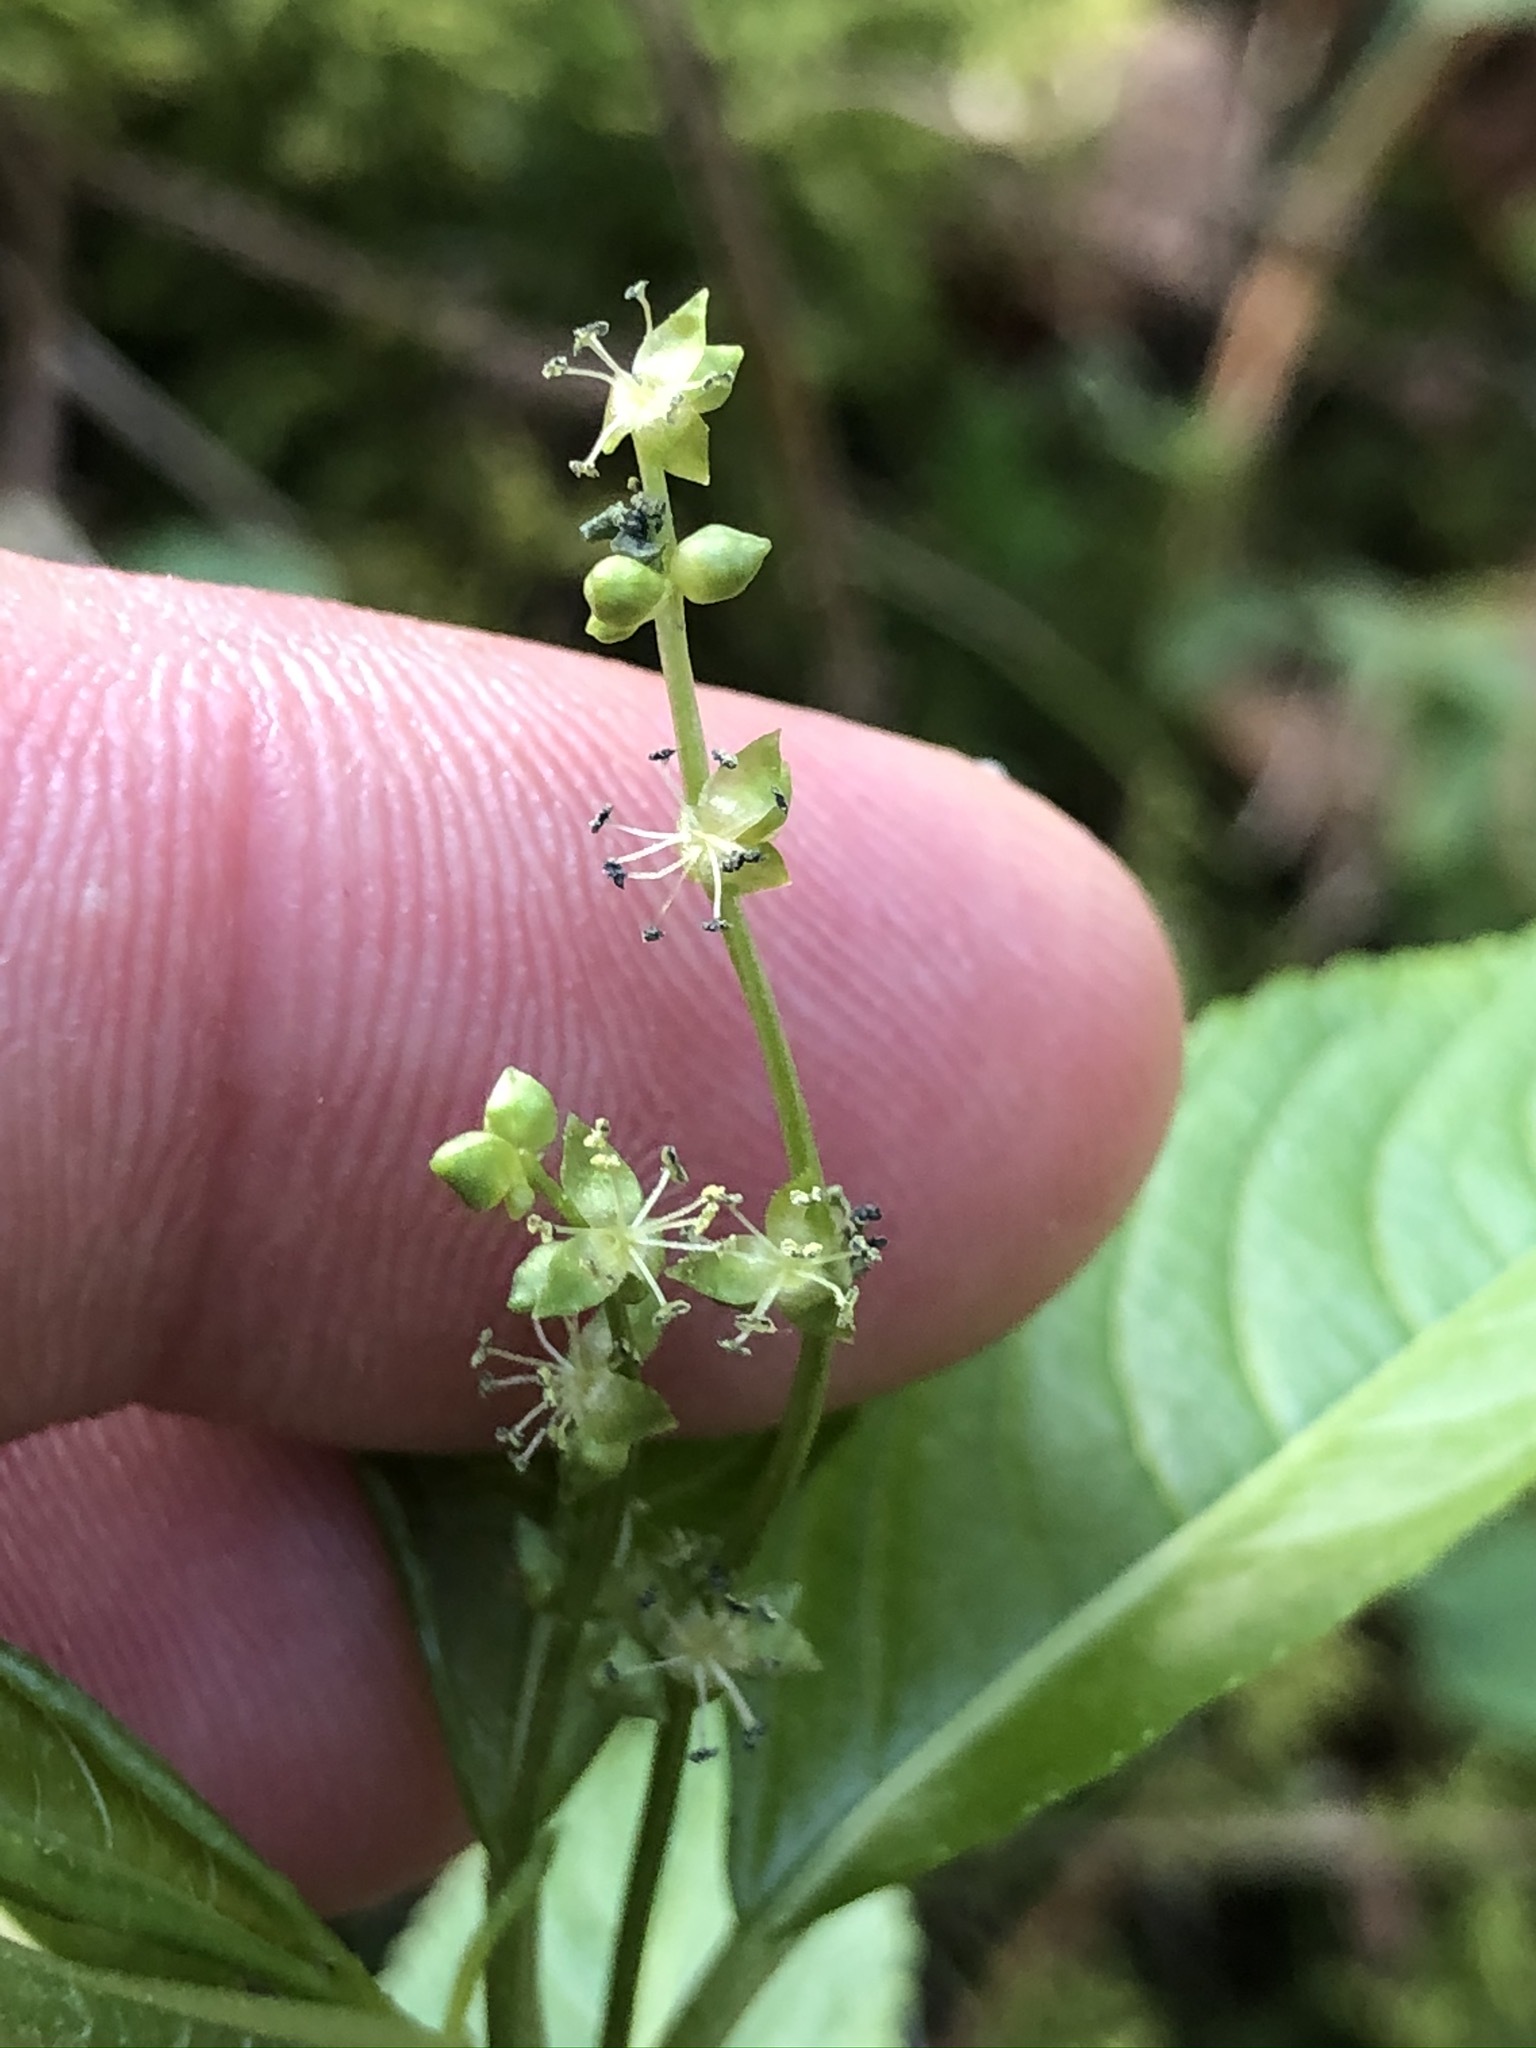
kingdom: Plantae
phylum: Tracheophyta
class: Magnoliopsida
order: Malpighiales
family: Euphorbiaceae
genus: Mercurialis
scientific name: Mercurialis perennis
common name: Dog mercury
